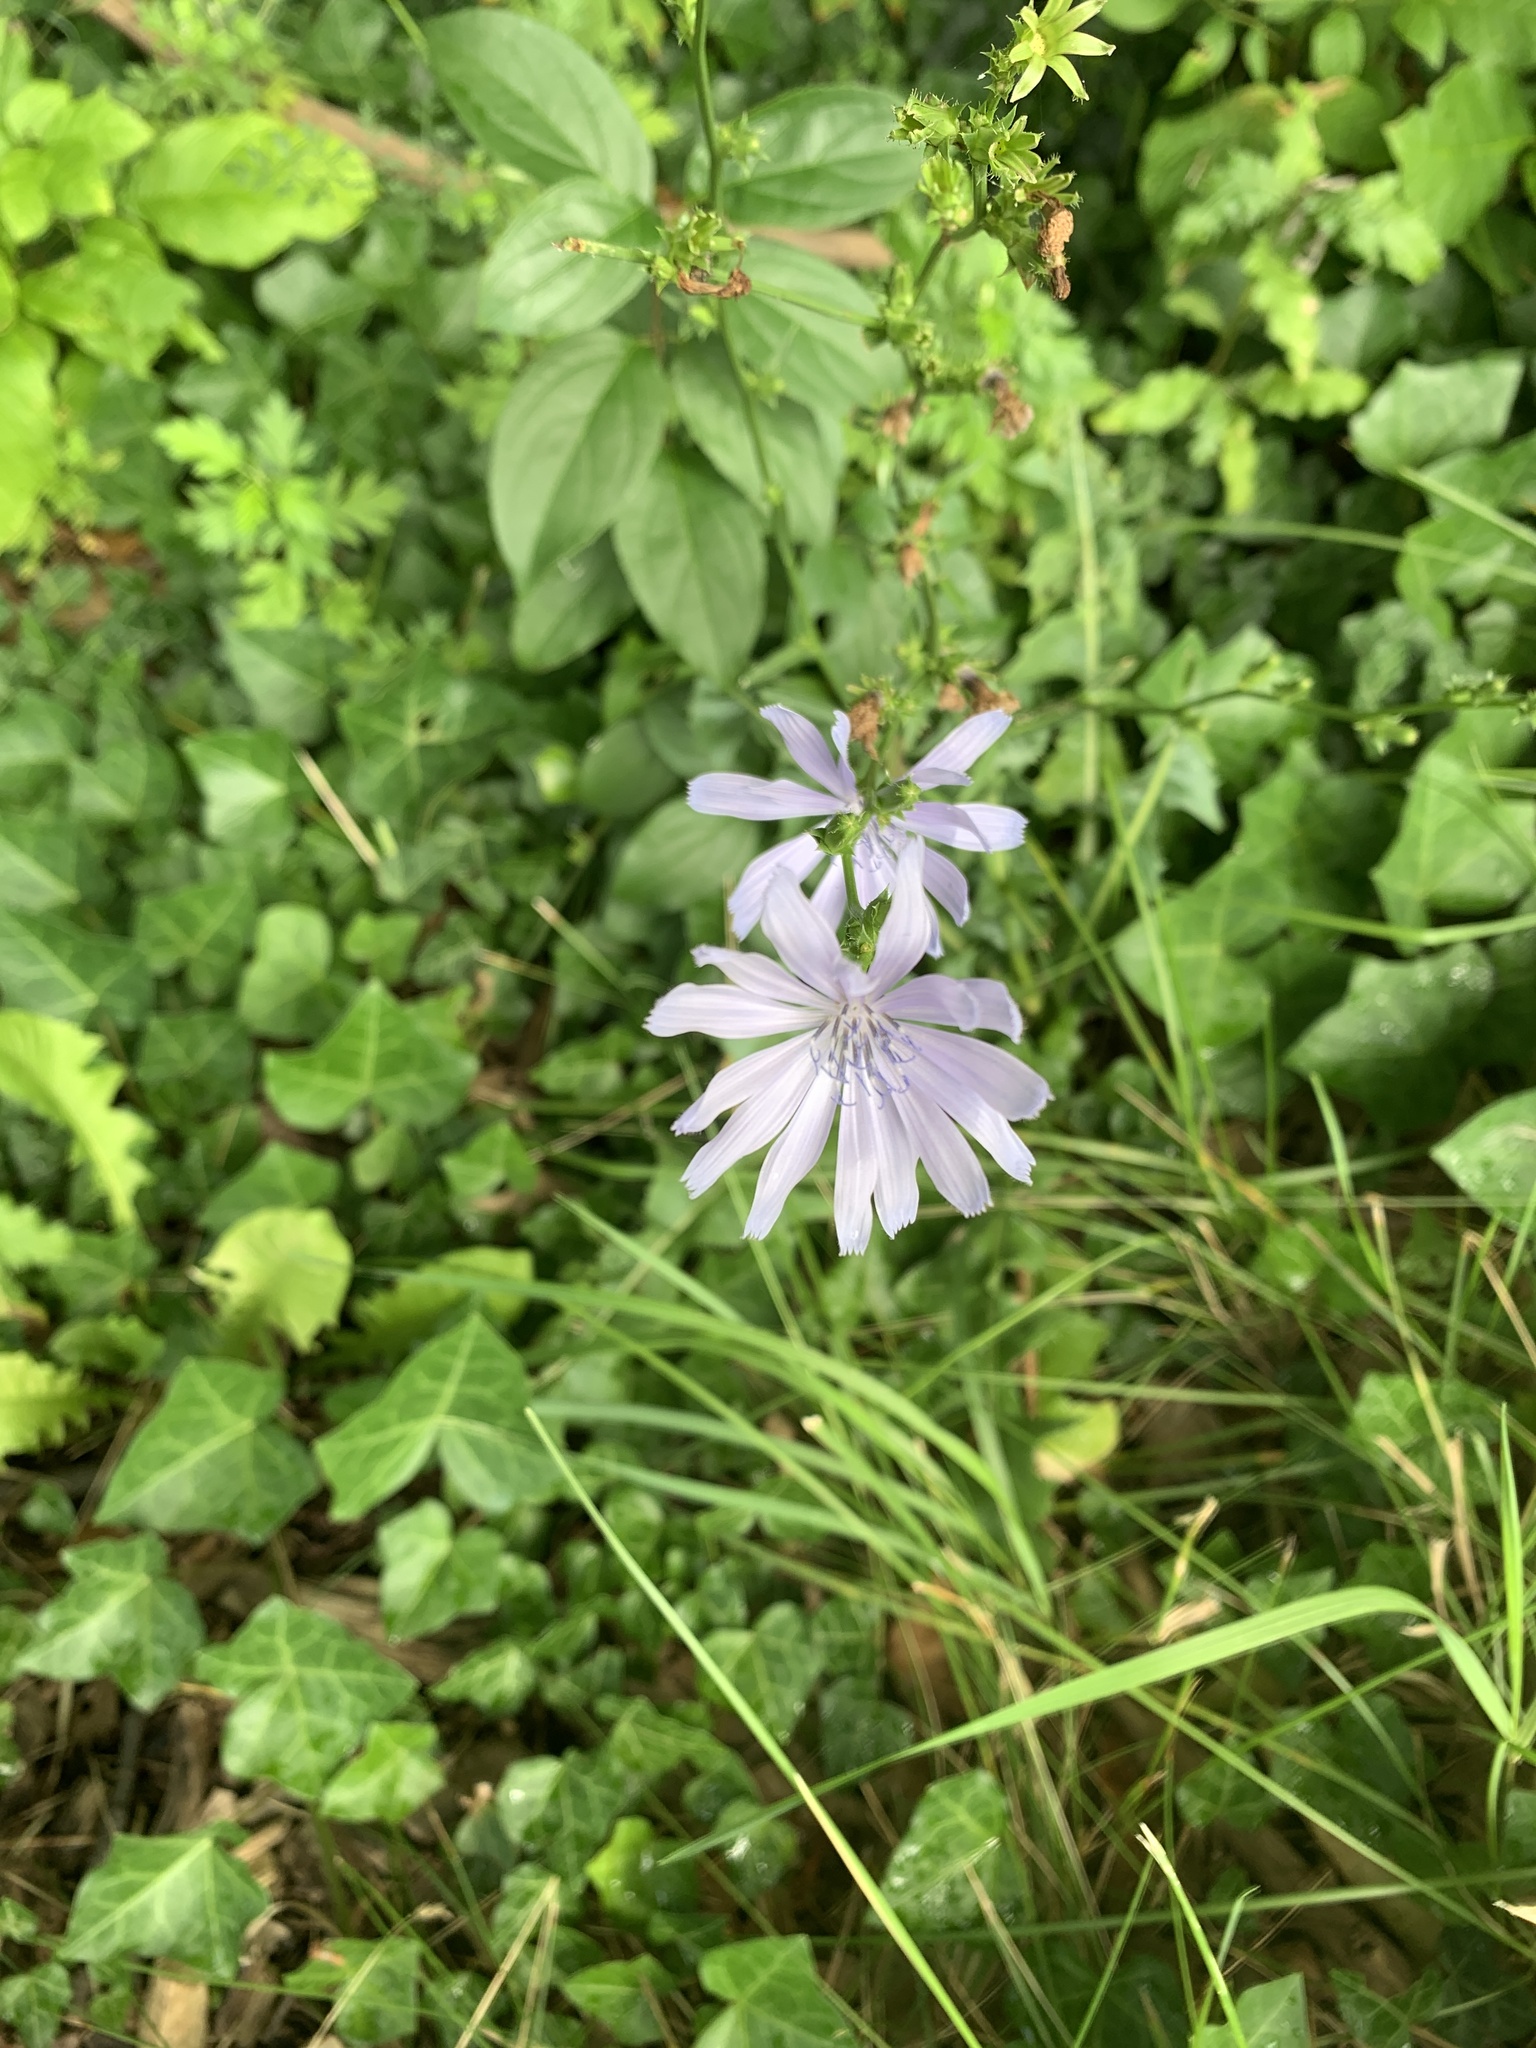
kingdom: Plantae
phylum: Tracheophyta
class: Magnoliopsida
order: Asterales
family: Asteraceae
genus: Cichorium
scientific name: Cichorium intybus
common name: Chicory
